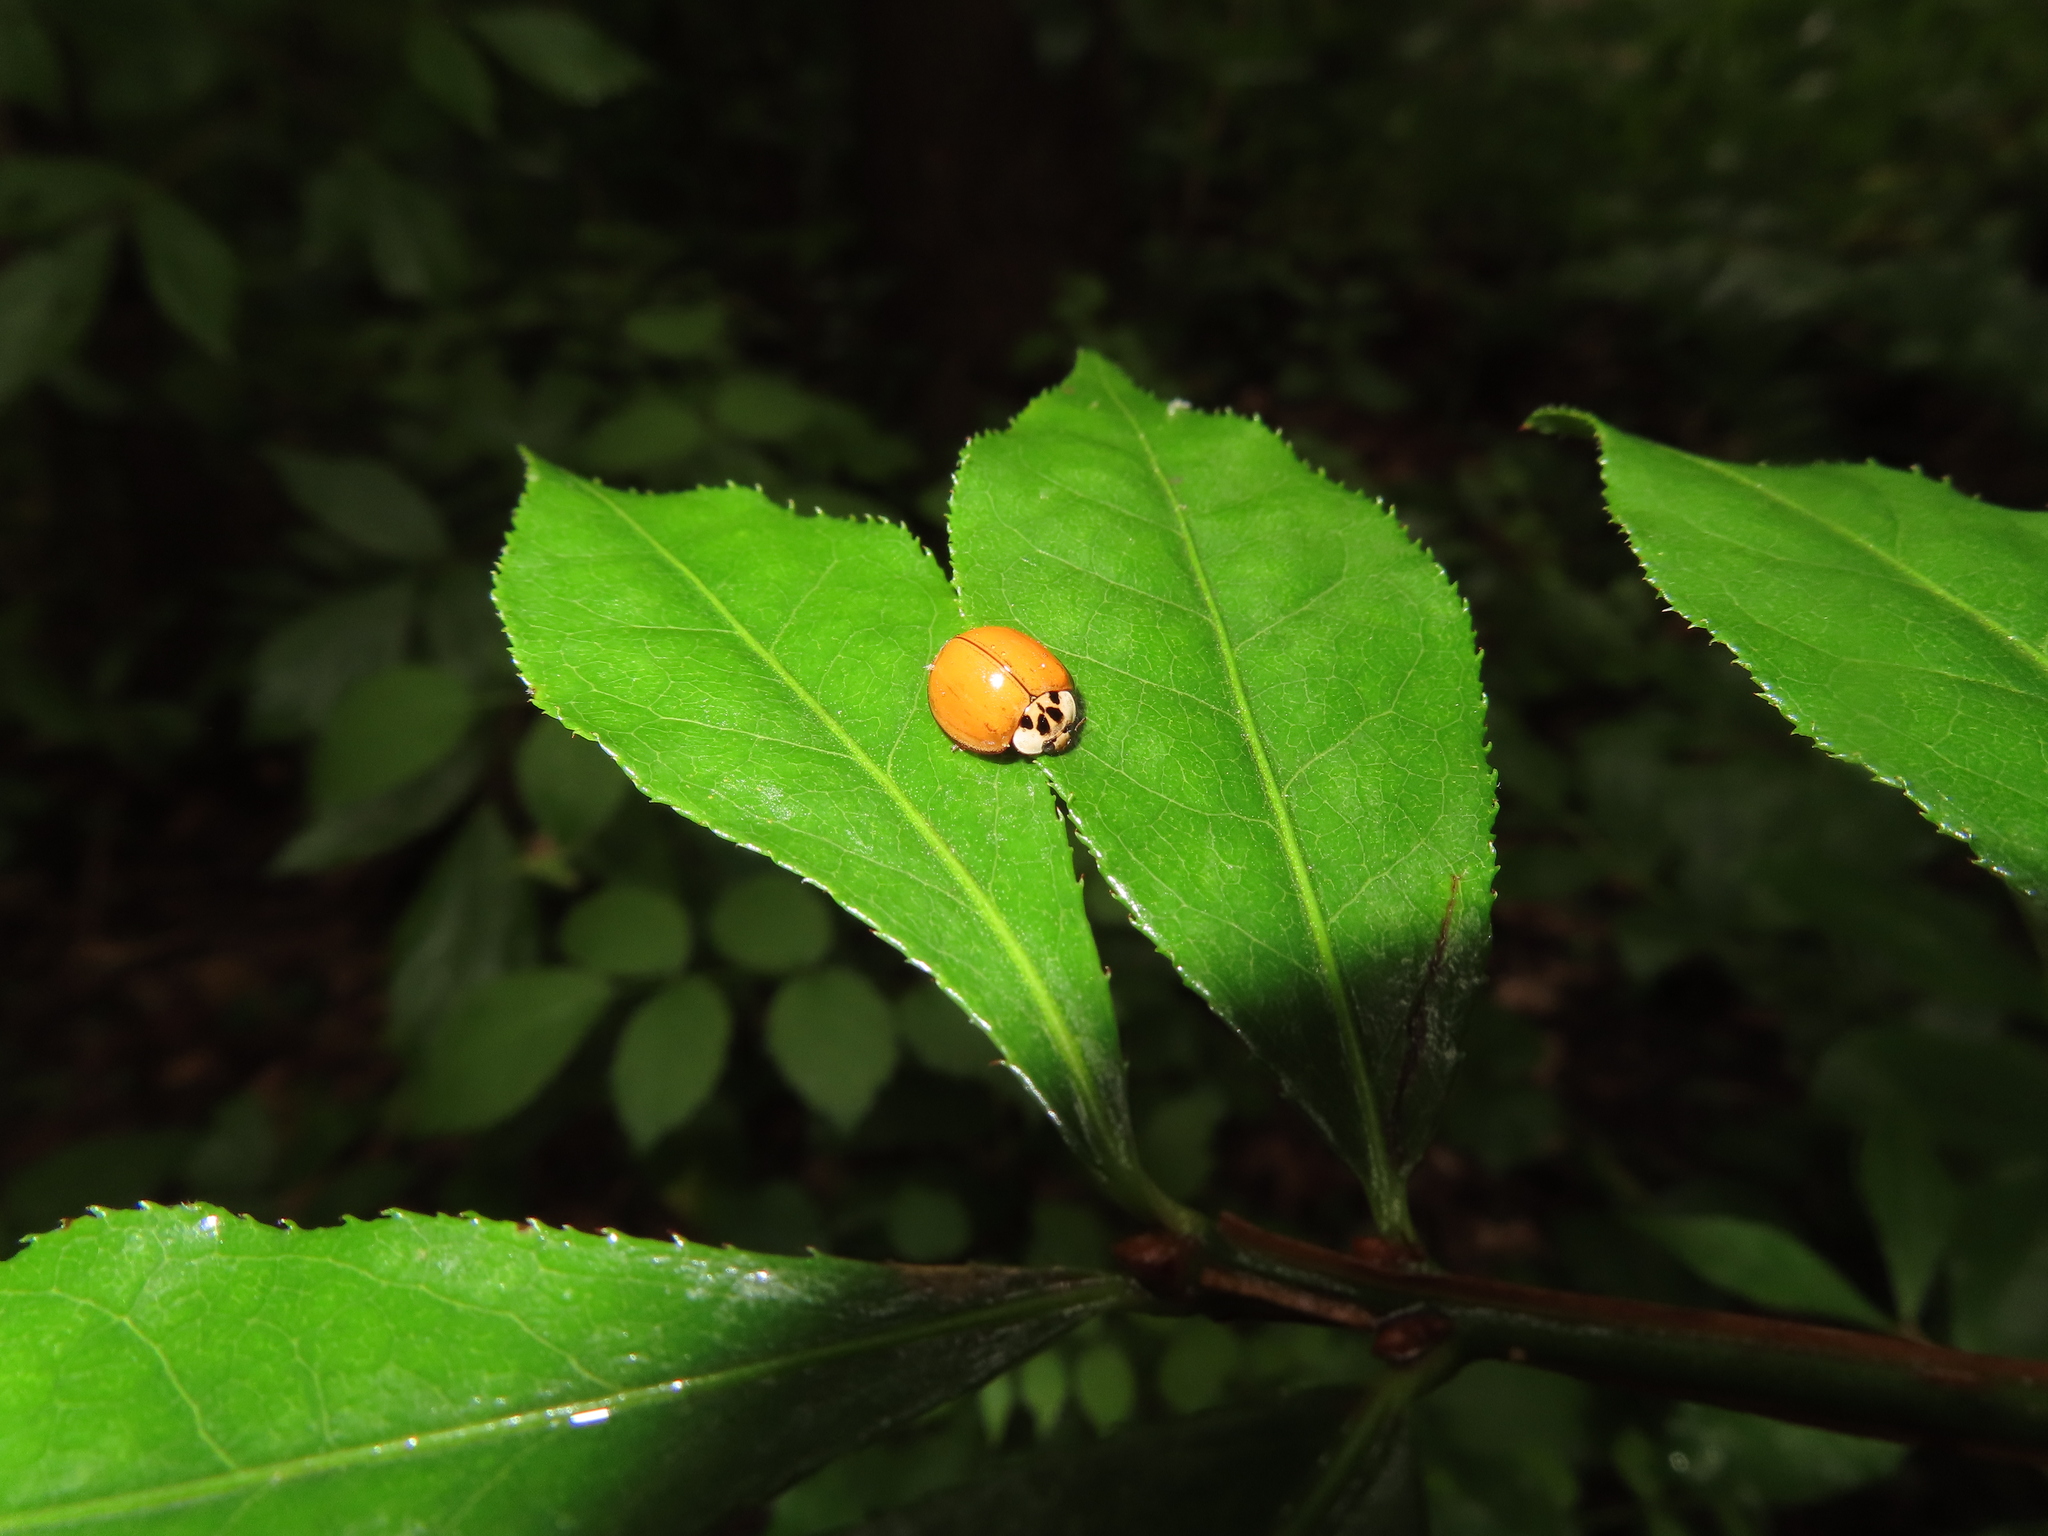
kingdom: Animalia
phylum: Arthropoda
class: Insecta
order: Coleoptera
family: Coccinellidae
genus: Harmonia
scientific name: Harmonia axyridis
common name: Harlequin ladybird
